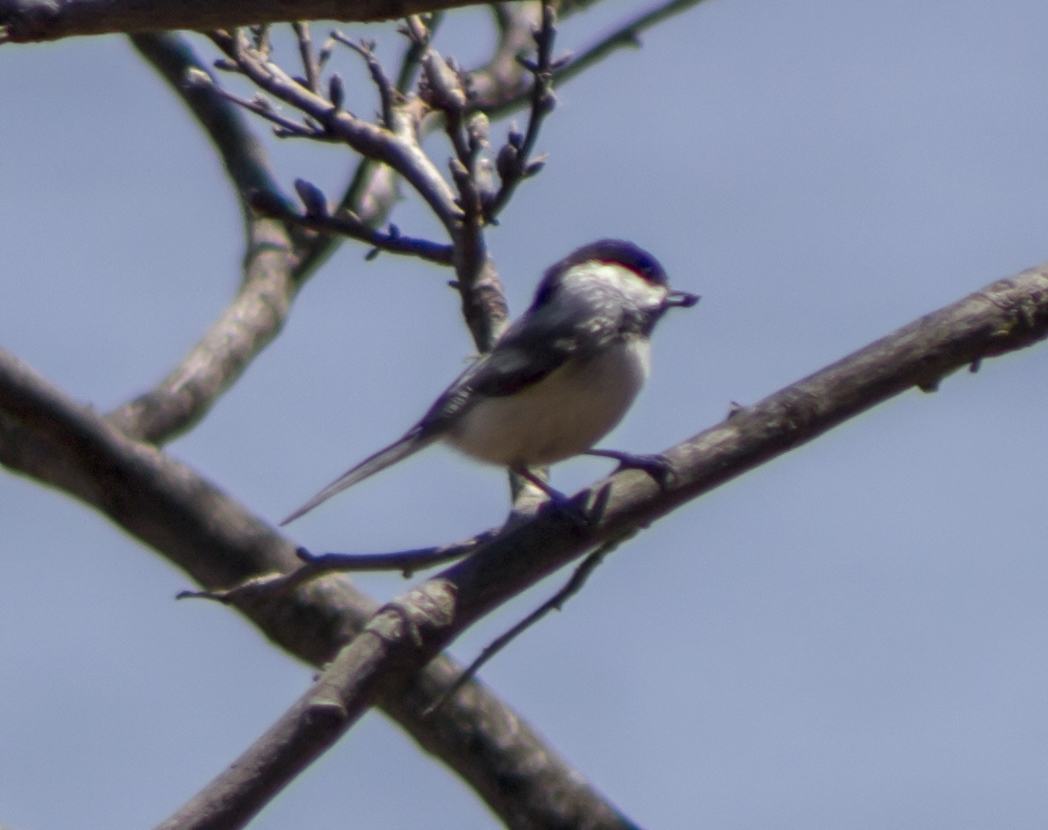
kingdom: Animalia
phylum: Chordata
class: Aves
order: Passeriformes
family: Paridae
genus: Poecile
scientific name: Poecile atricapillus
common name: Black-capped chickadee
